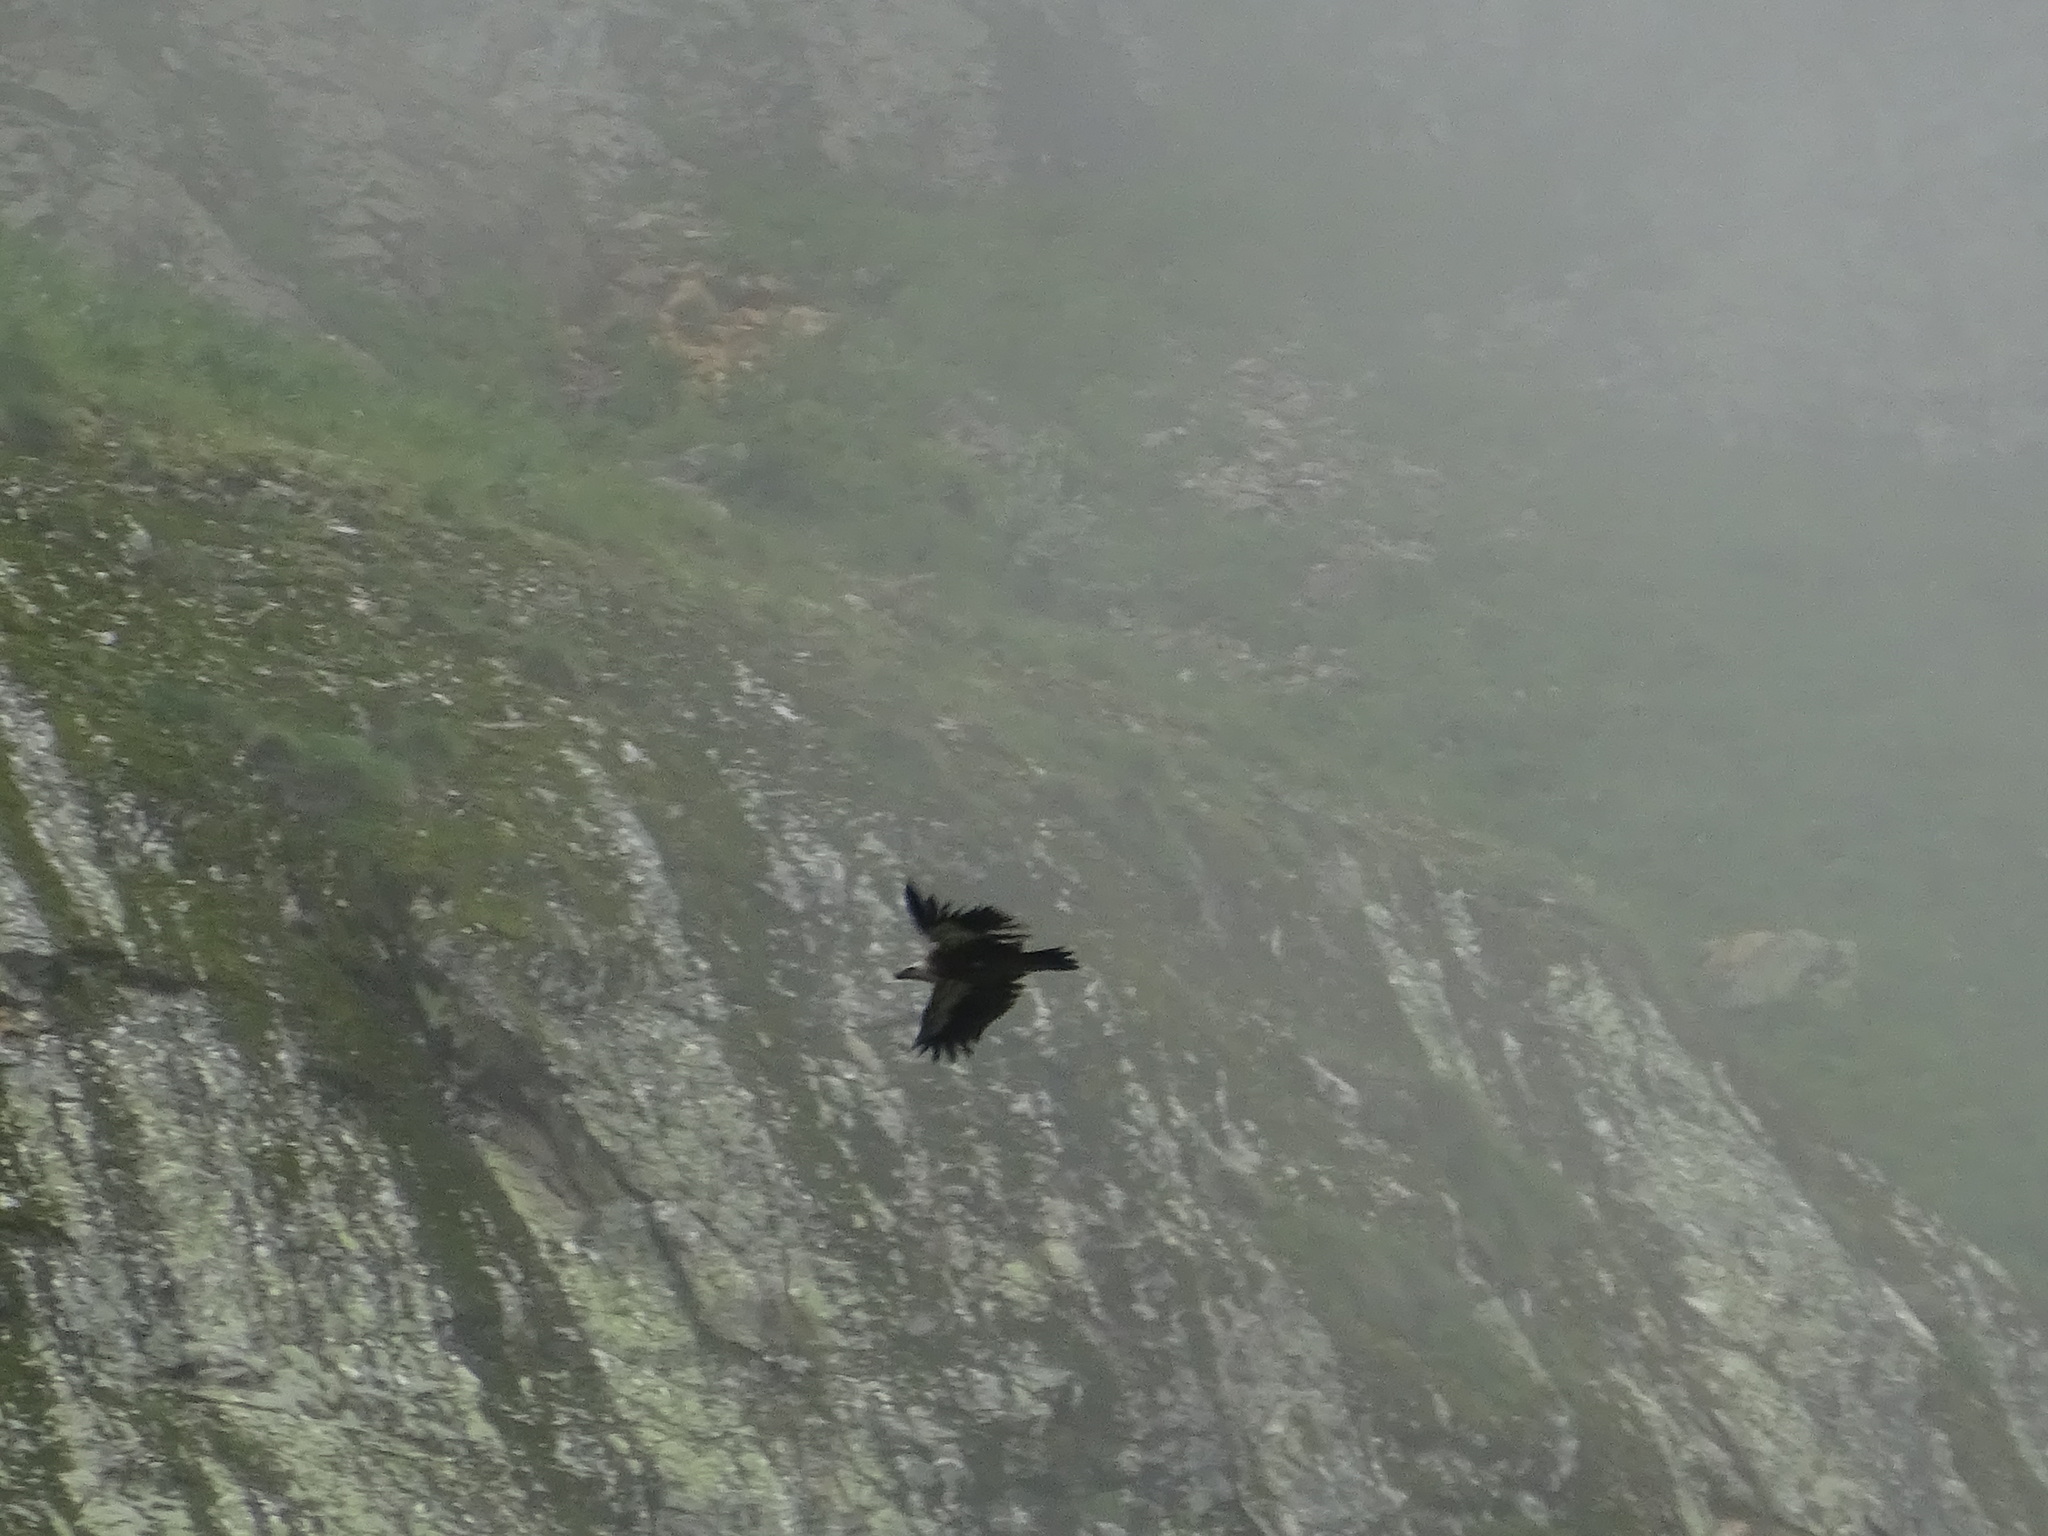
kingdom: Animalia
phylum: Chordata
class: Aves
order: Accipitriformes
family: Accipitridae
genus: Gyps
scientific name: Gyps fulvus
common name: Griffon vulture
